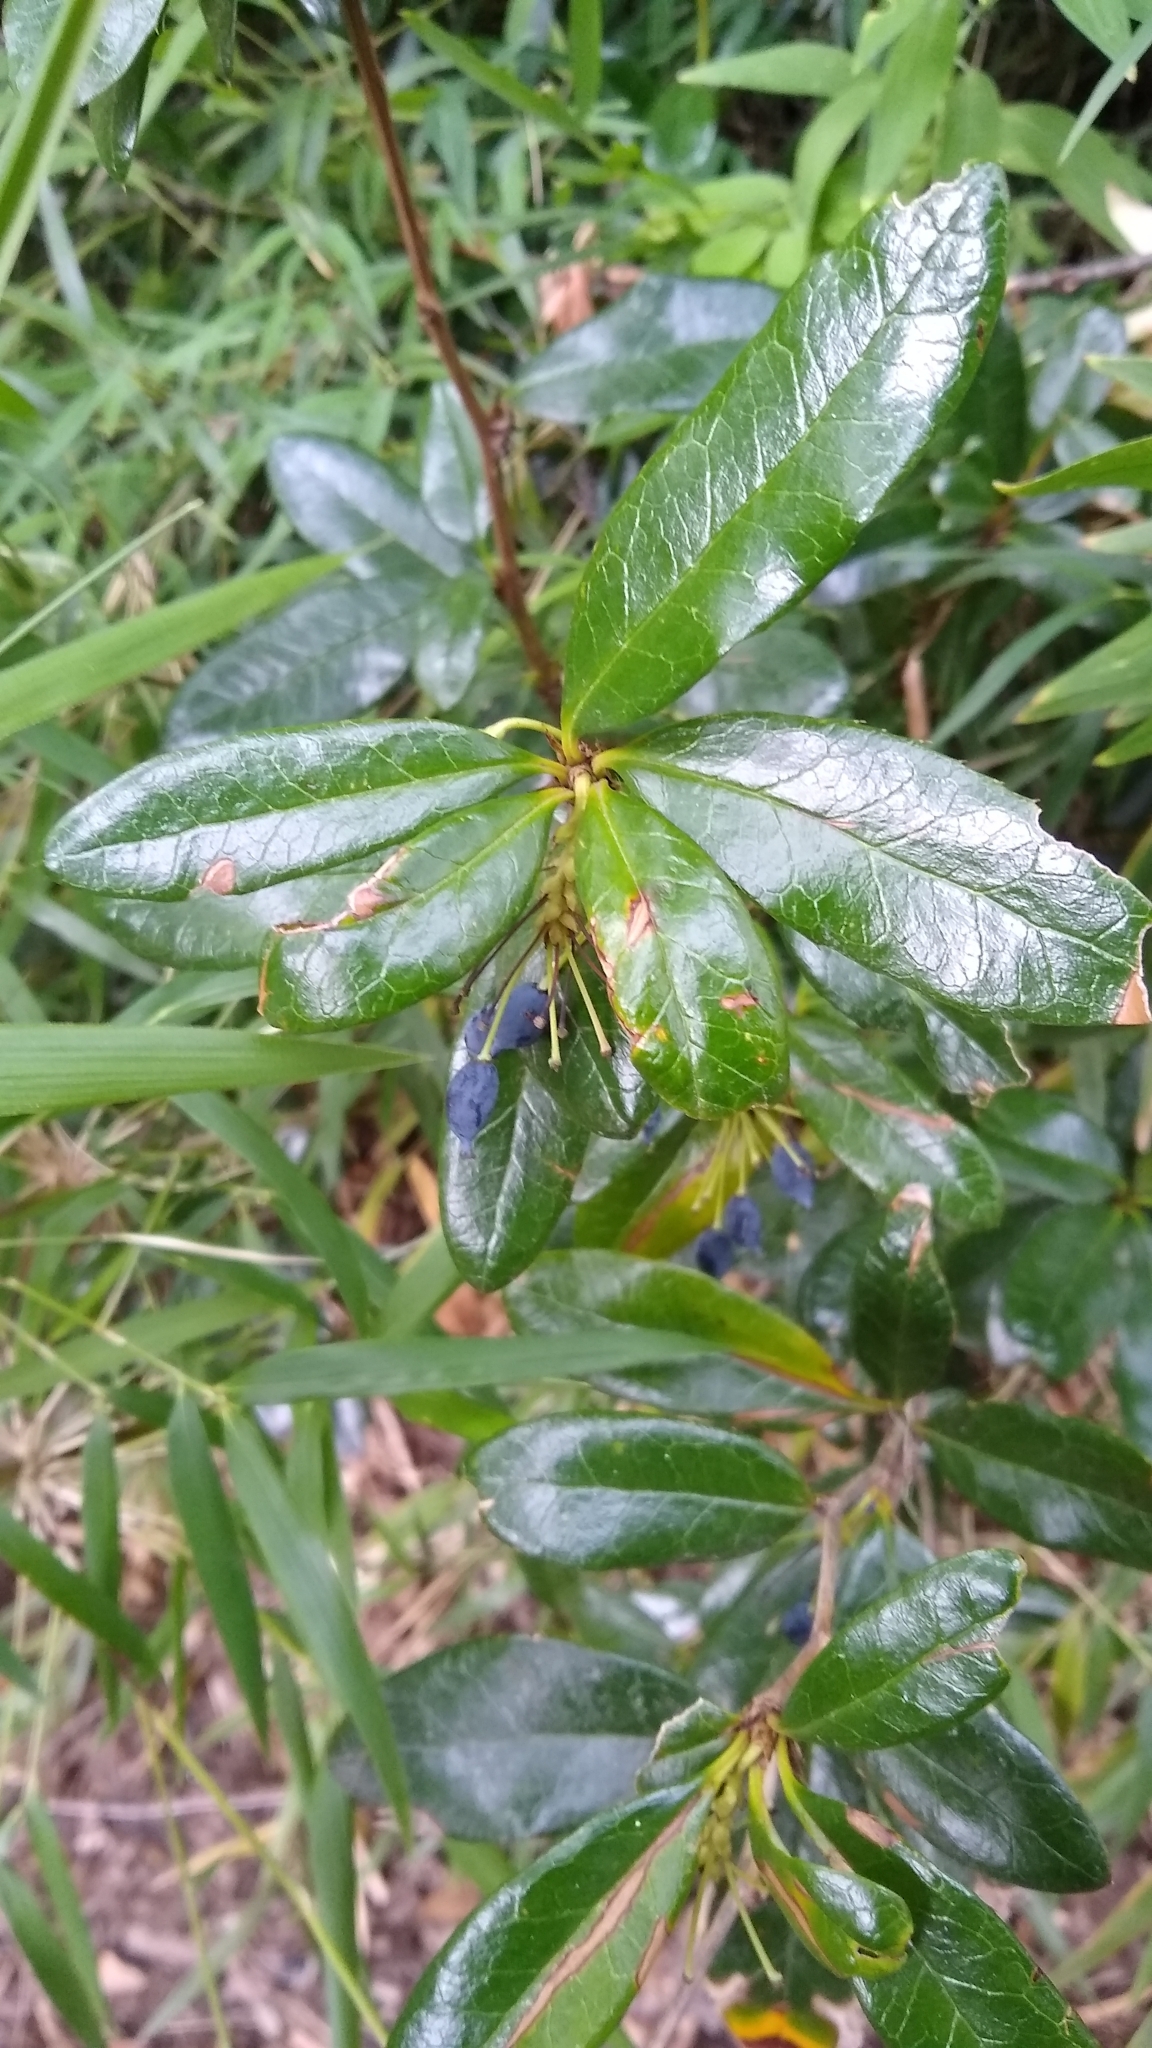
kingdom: Plantae
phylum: Tracheophyta
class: Magnoliopsida
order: Ranunculales
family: Berberidaceae
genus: Berberis
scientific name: Berberis pseudoilicifolia
